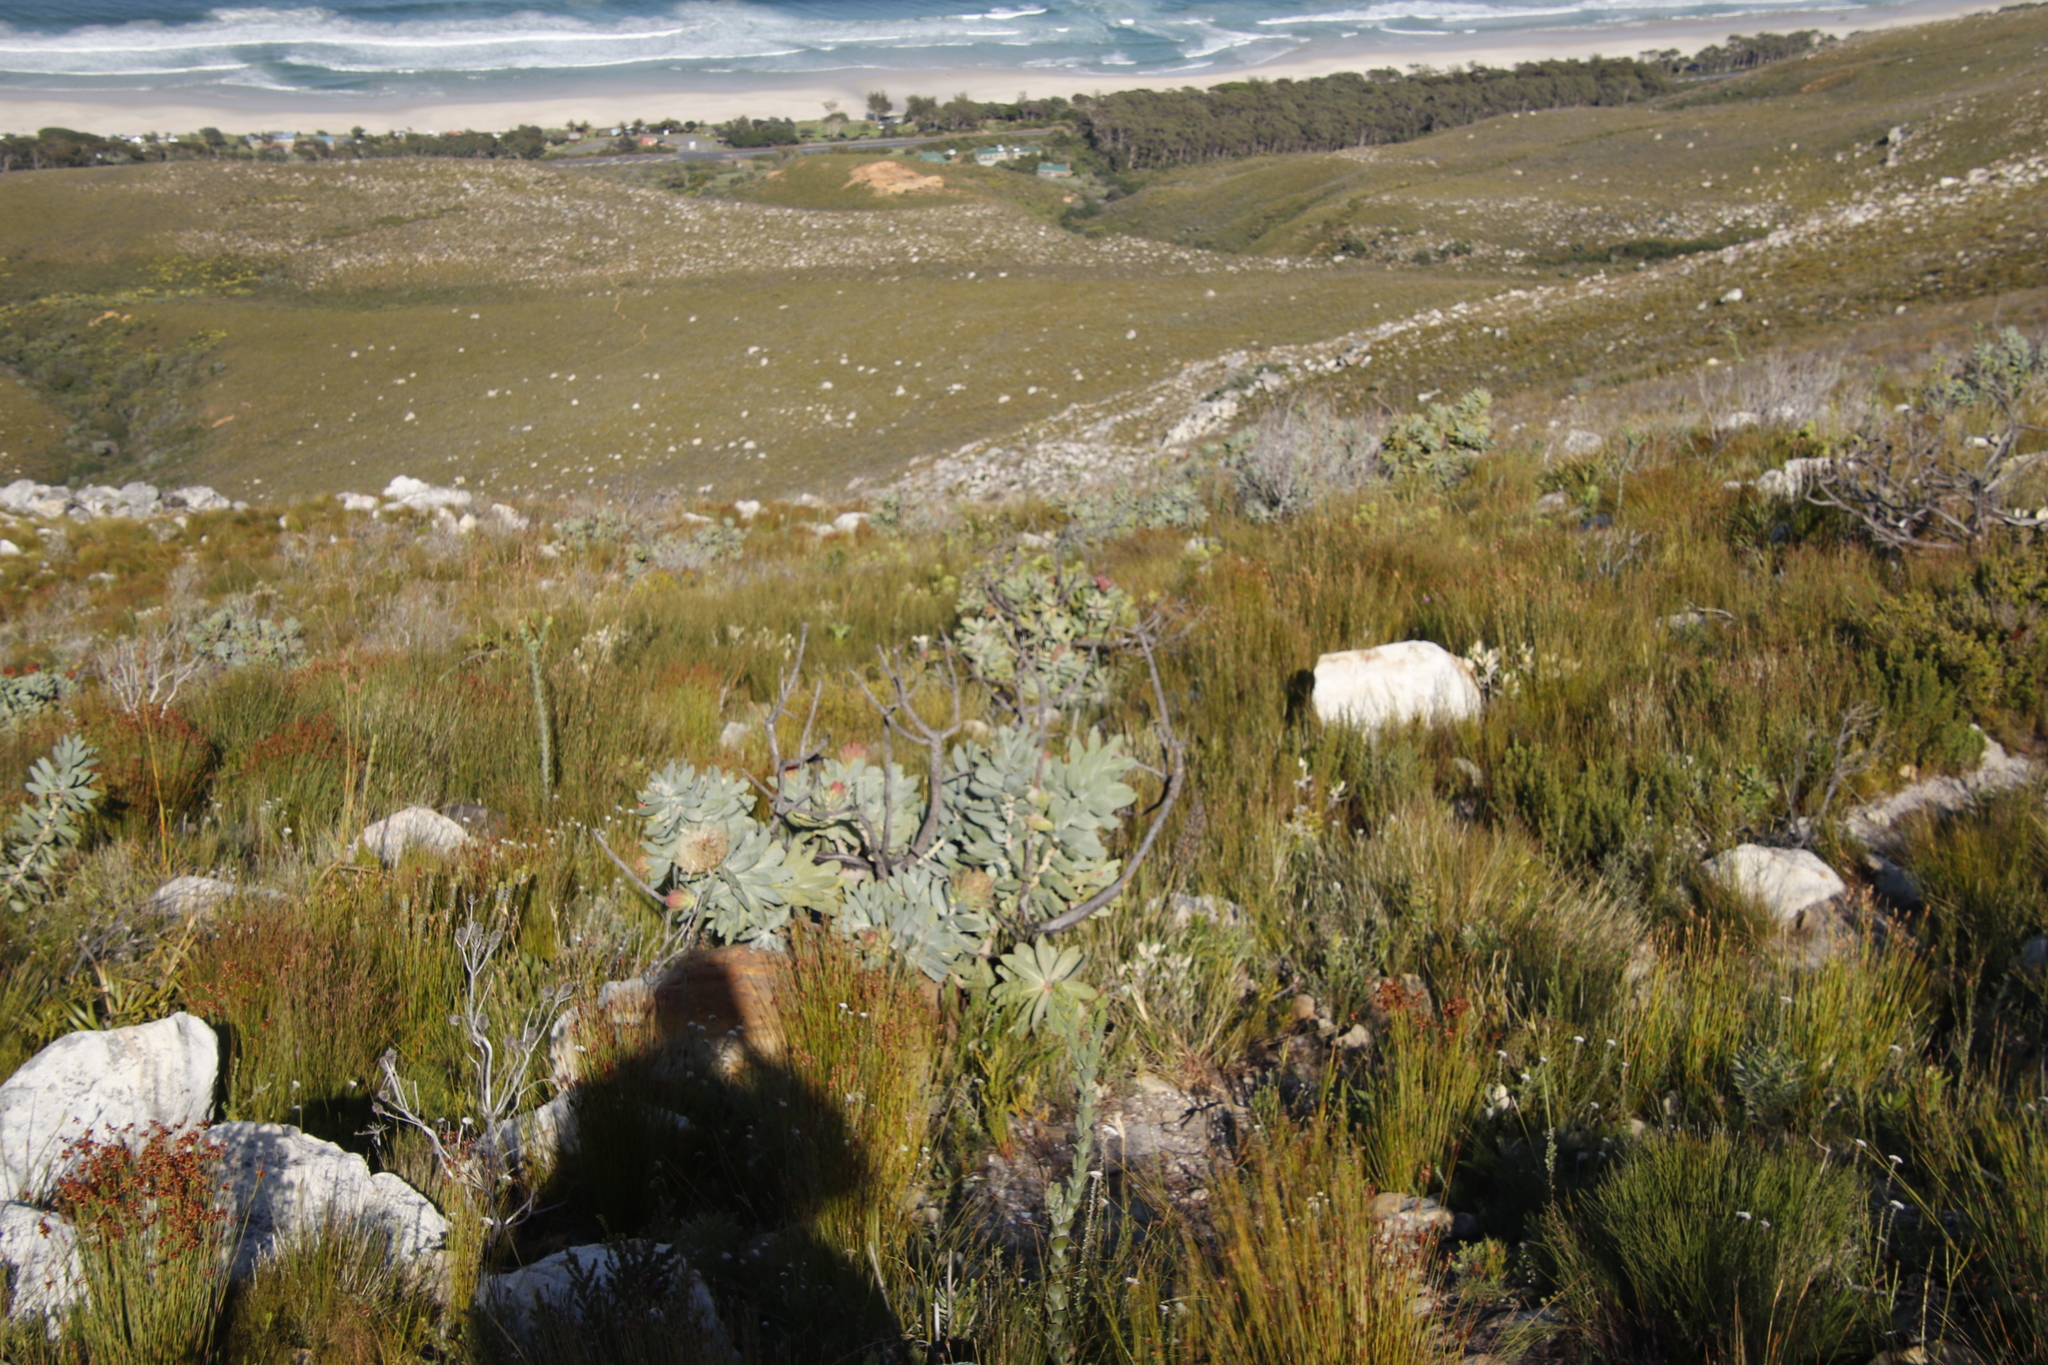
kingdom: Plantae
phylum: Tracheophyta
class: Magnoliopsida
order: Proteales
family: Proteaceae
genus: Protea
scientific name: Protea nitida
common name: Tree protea
